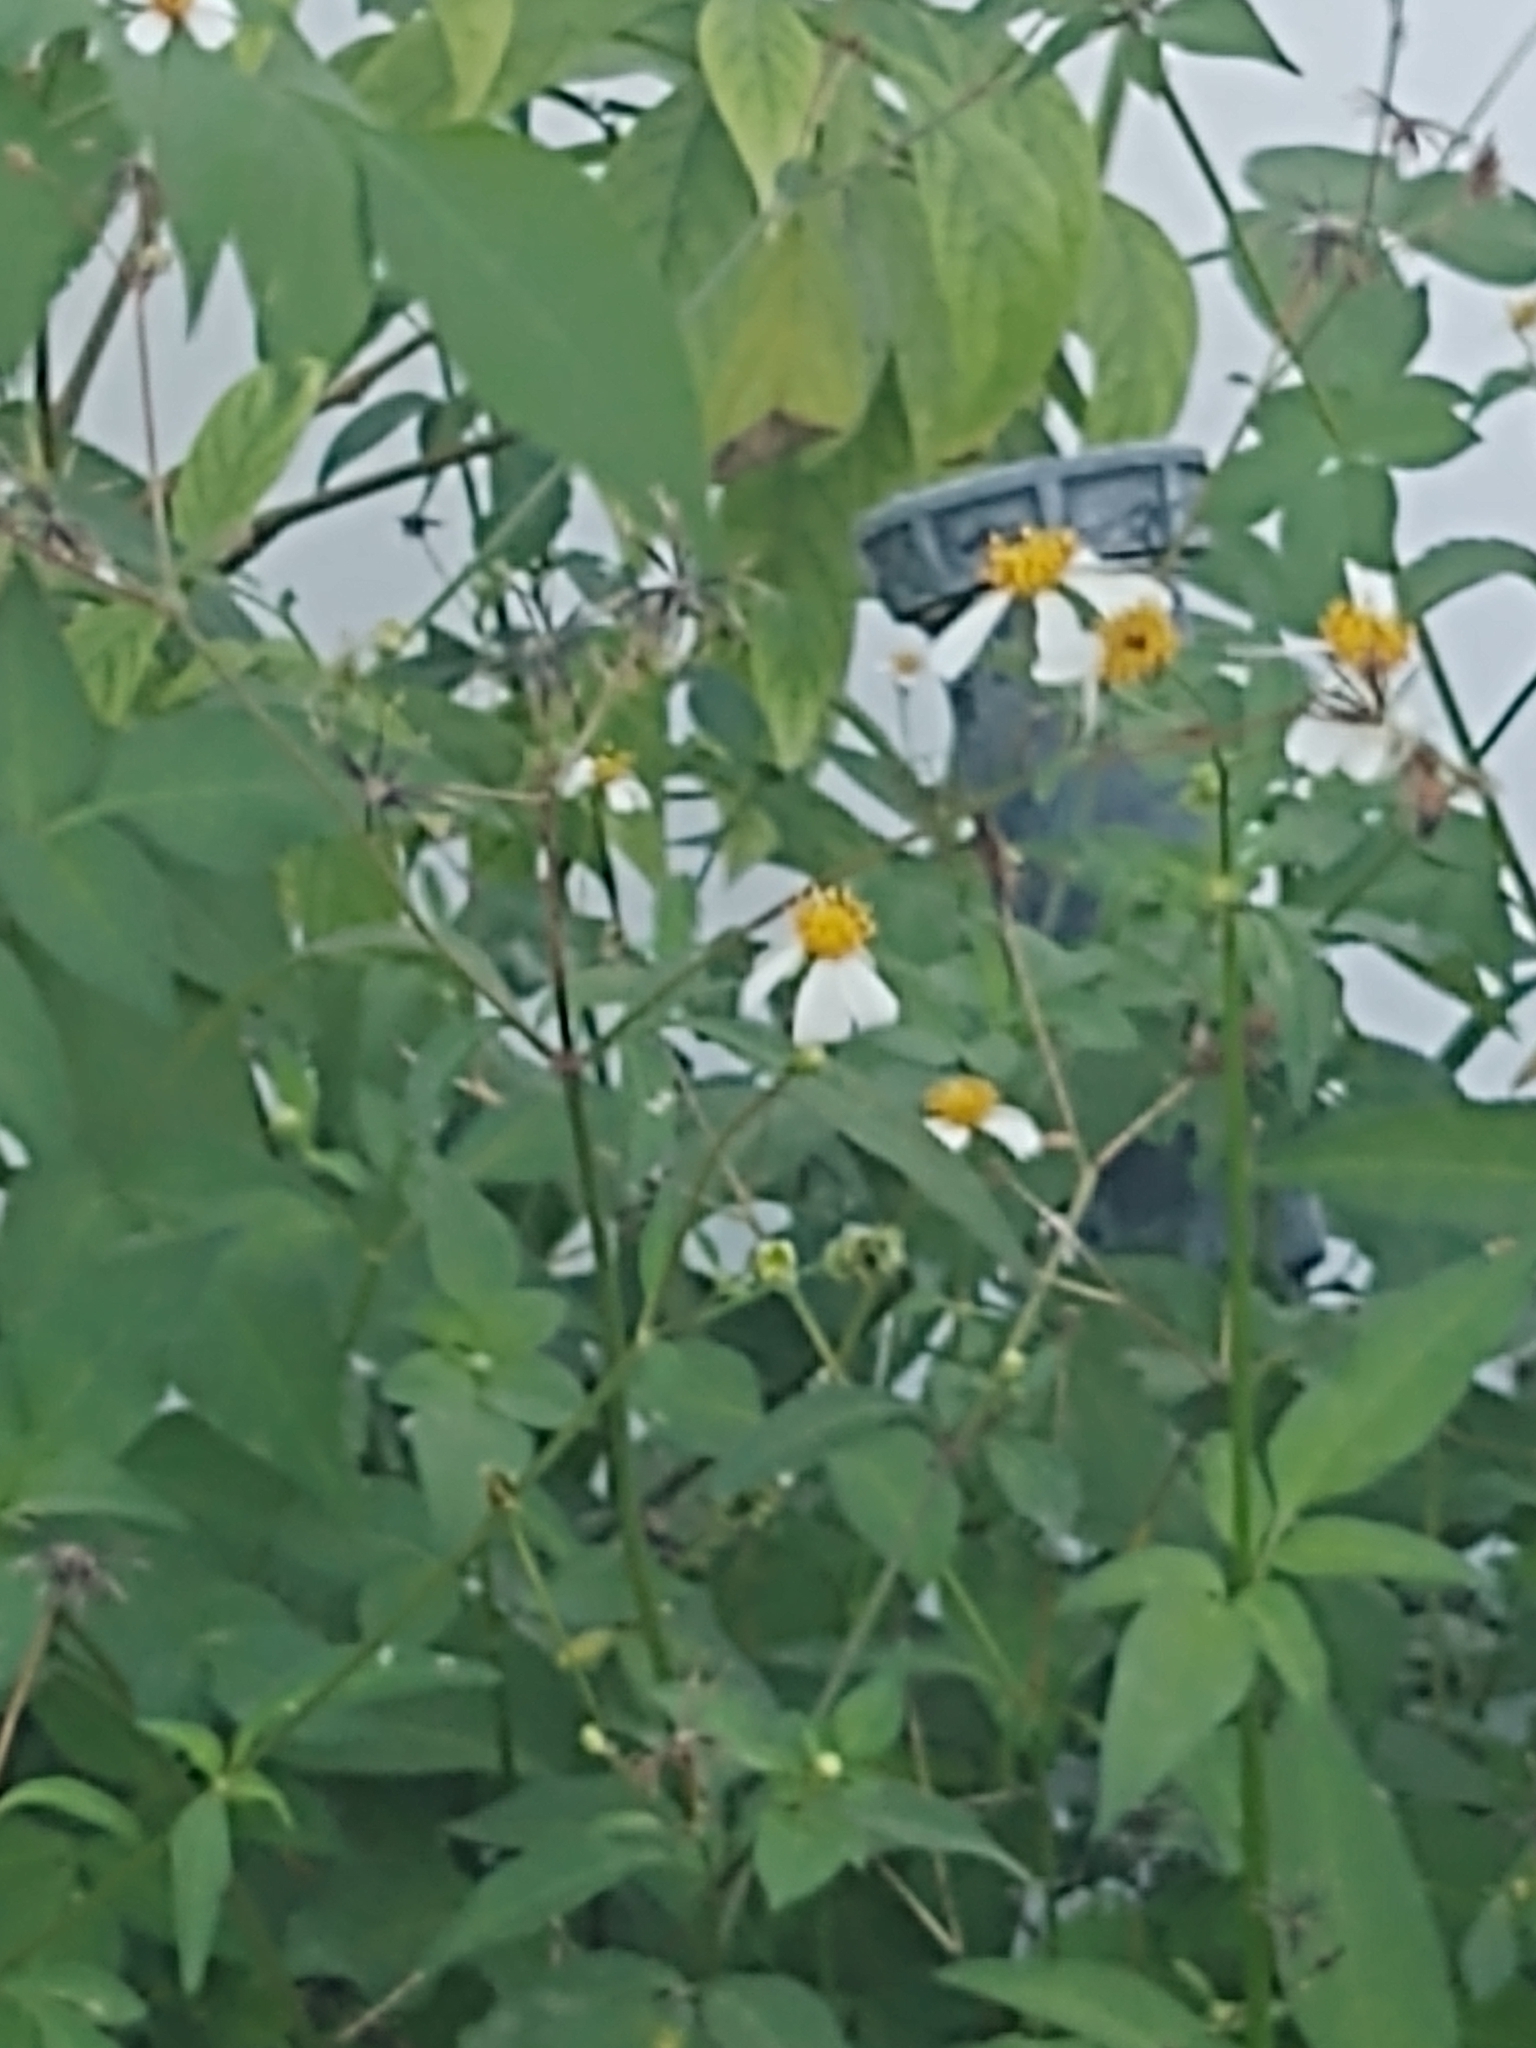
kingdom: Plantae
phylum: Tracheophyta
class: Magnoliopsida
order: Asterales
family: Asteraceae
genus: Bidens
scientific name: Bidens alba
